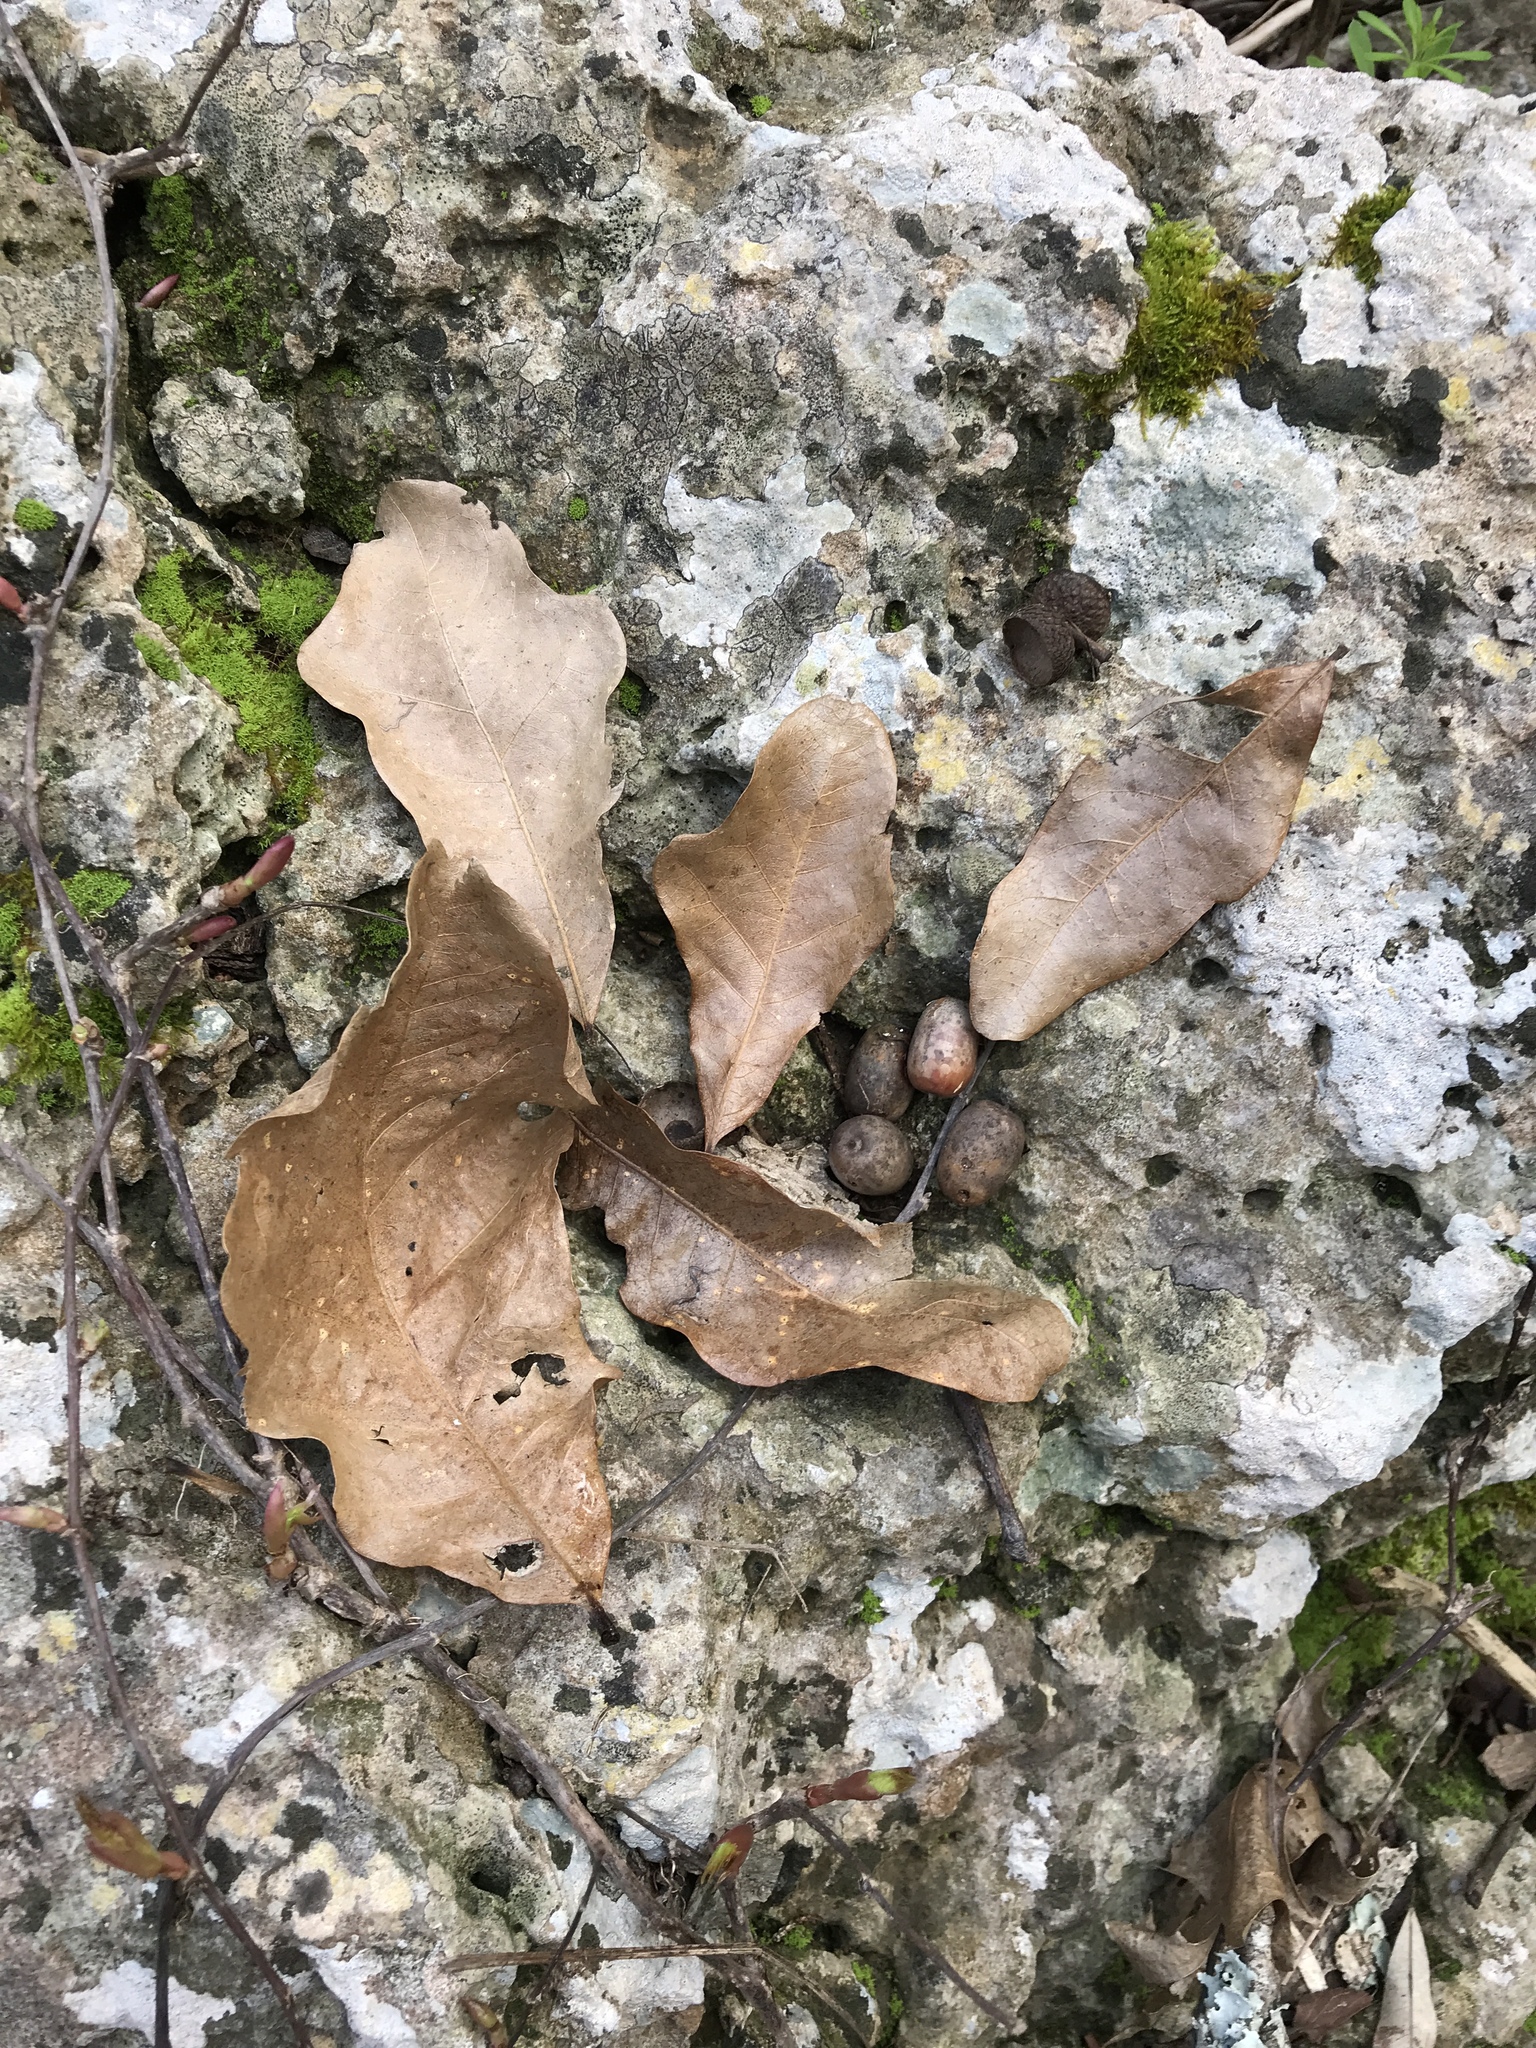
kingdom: Plantae
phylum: Tracheophyta
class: Magnoliopsida
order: Fagales
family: Fagaceae
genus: Quercus
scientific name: Quercus sinuata
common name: Durand oak
